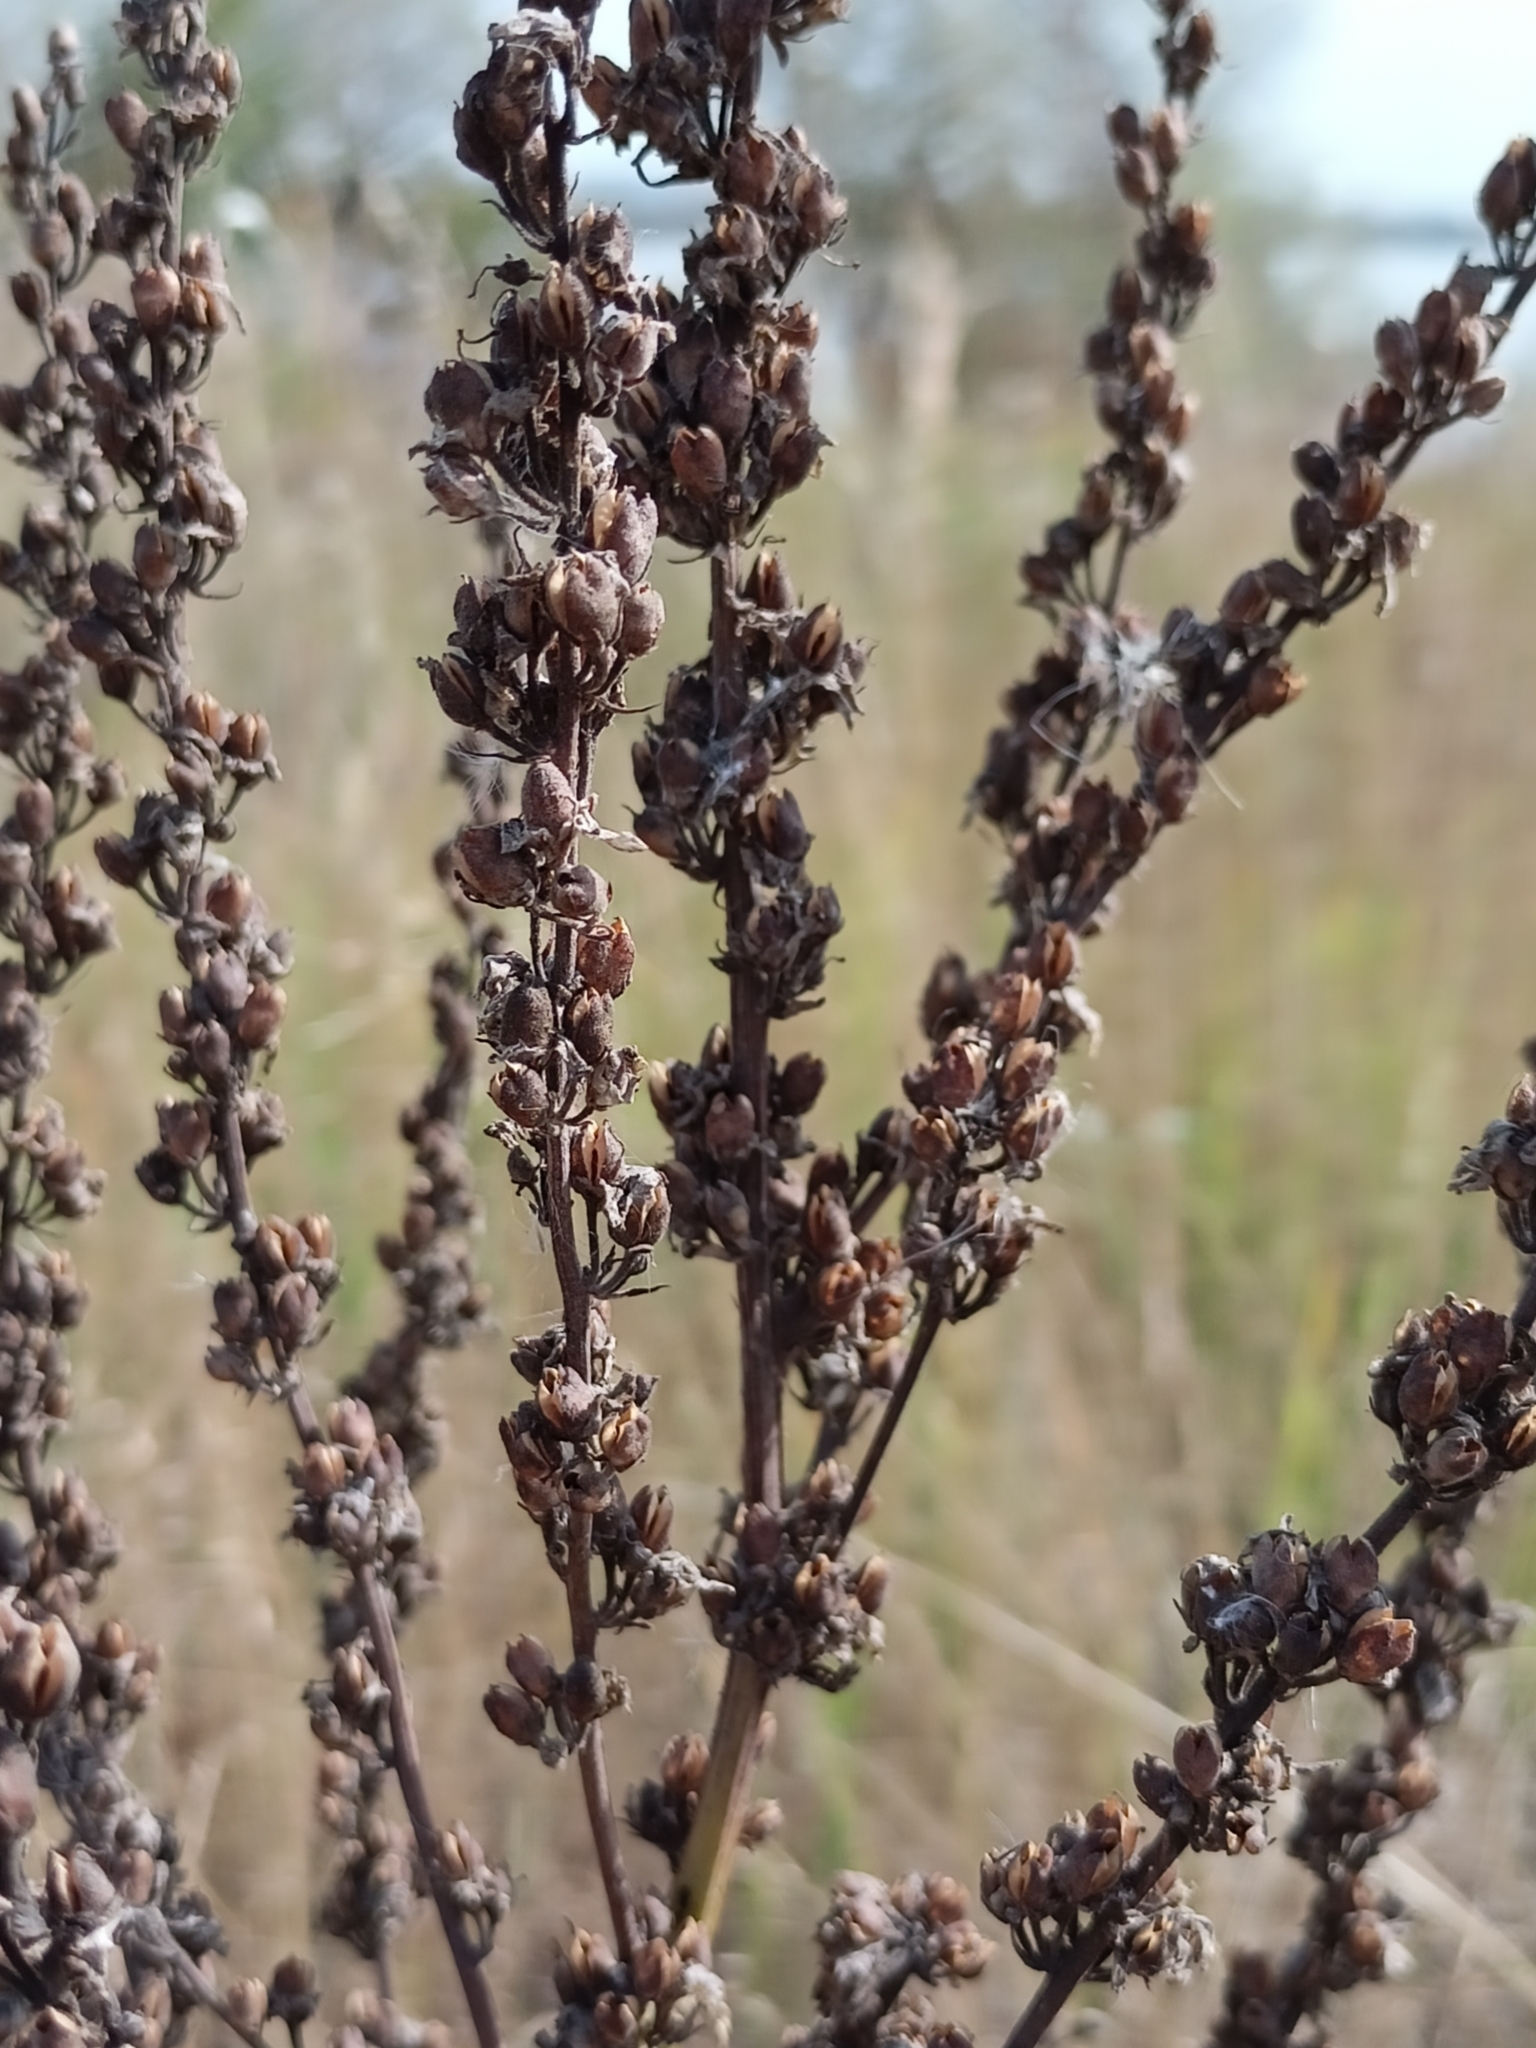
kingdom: Plantae
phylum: Tracheophyta
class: Magnoliopsida
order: Lamiales
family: Scrophulariaceae
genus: Verbascum
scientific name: Verbascum lychnitis
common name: White mullein
